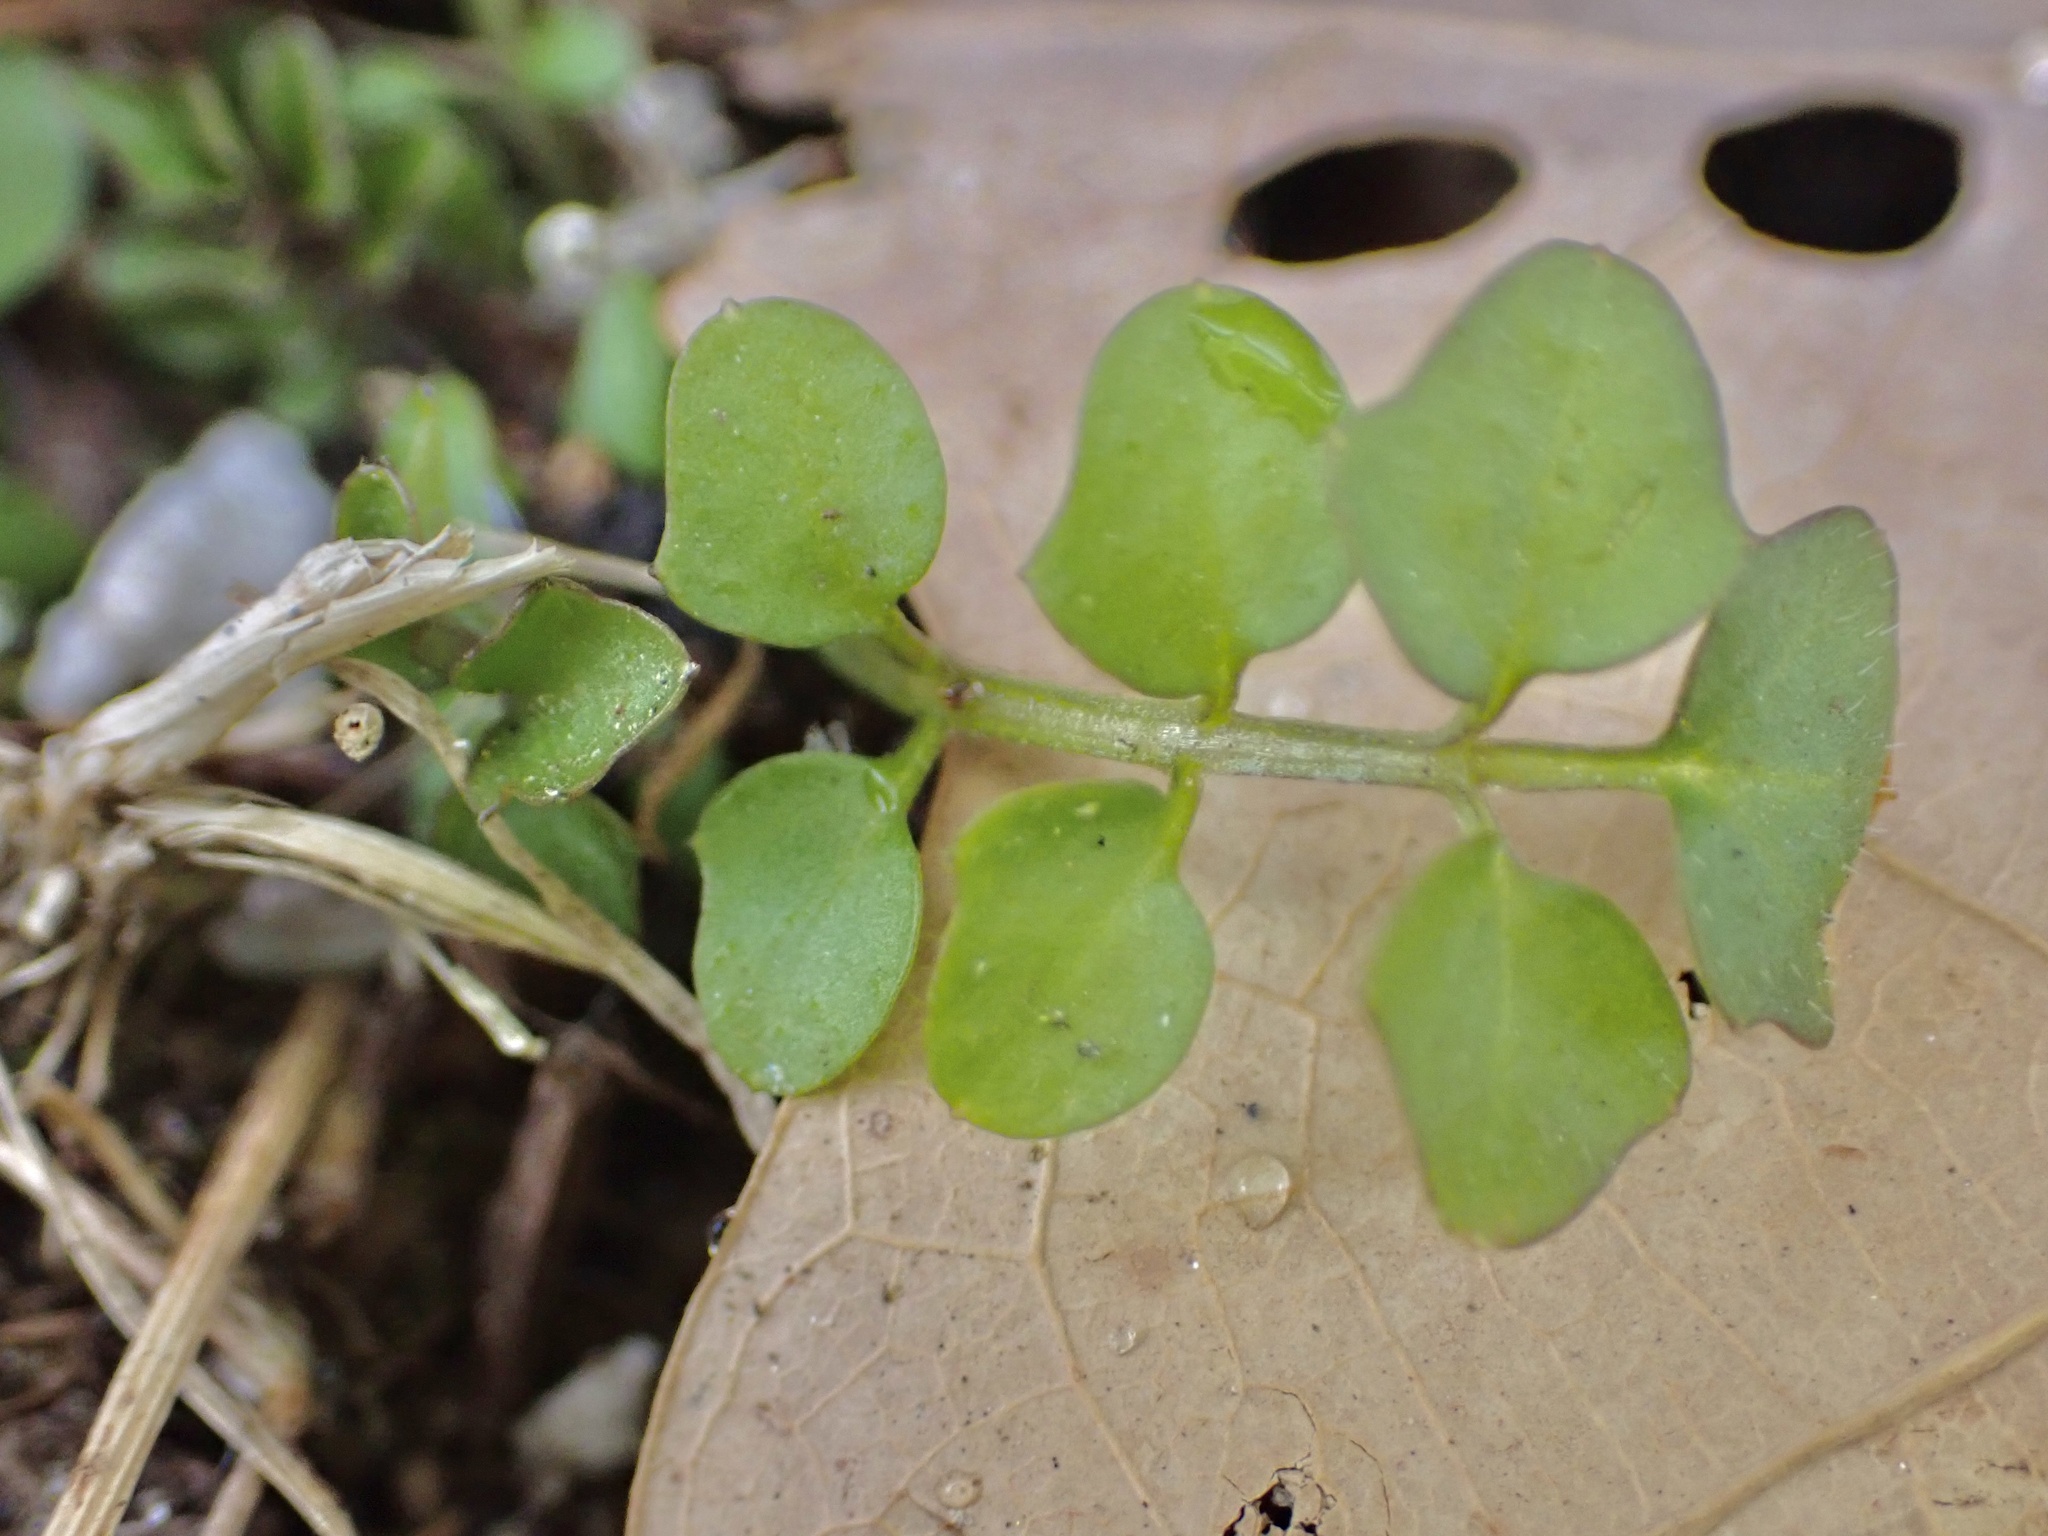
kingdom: Plantae
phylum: Tracheophyta
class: Magnoliopsida
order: Brassicales
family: Brassicaceae
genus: Cardamine
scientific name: Cardamine hirsuta
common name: Hairy bittercress
